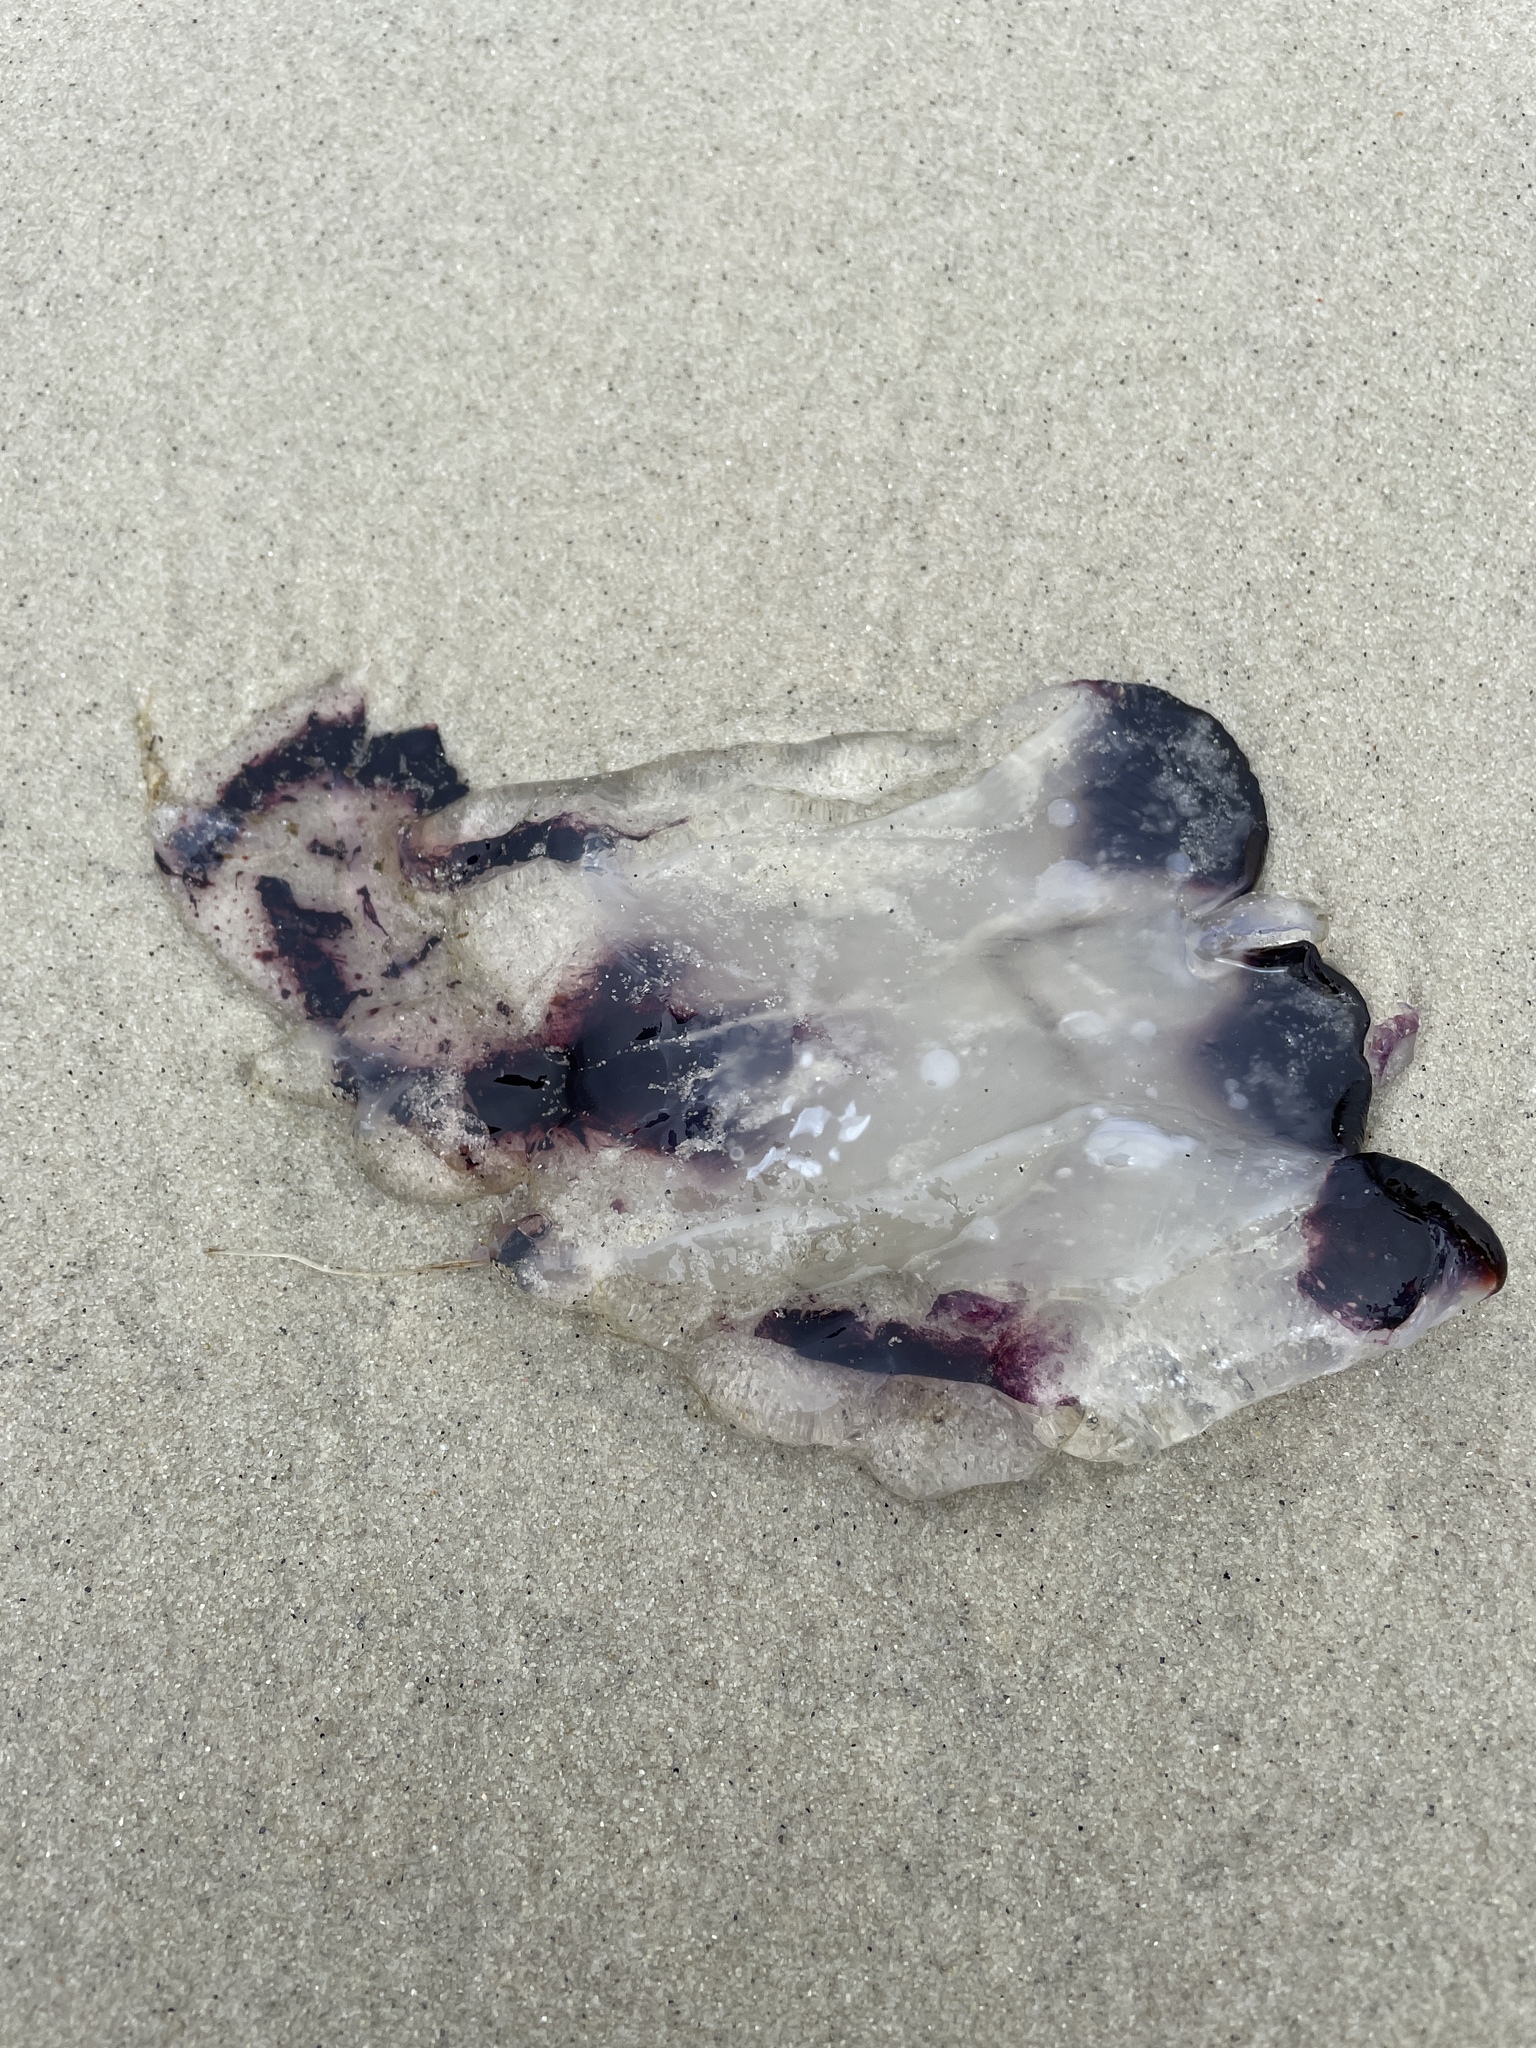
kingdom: Animalia
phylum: Cnidaria
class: Scyphozoa
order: Semaeostomeae
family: Pelagiidae
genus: Chrysaora
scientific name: Chrysaora colorata
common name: Purple-striped jellyfish
